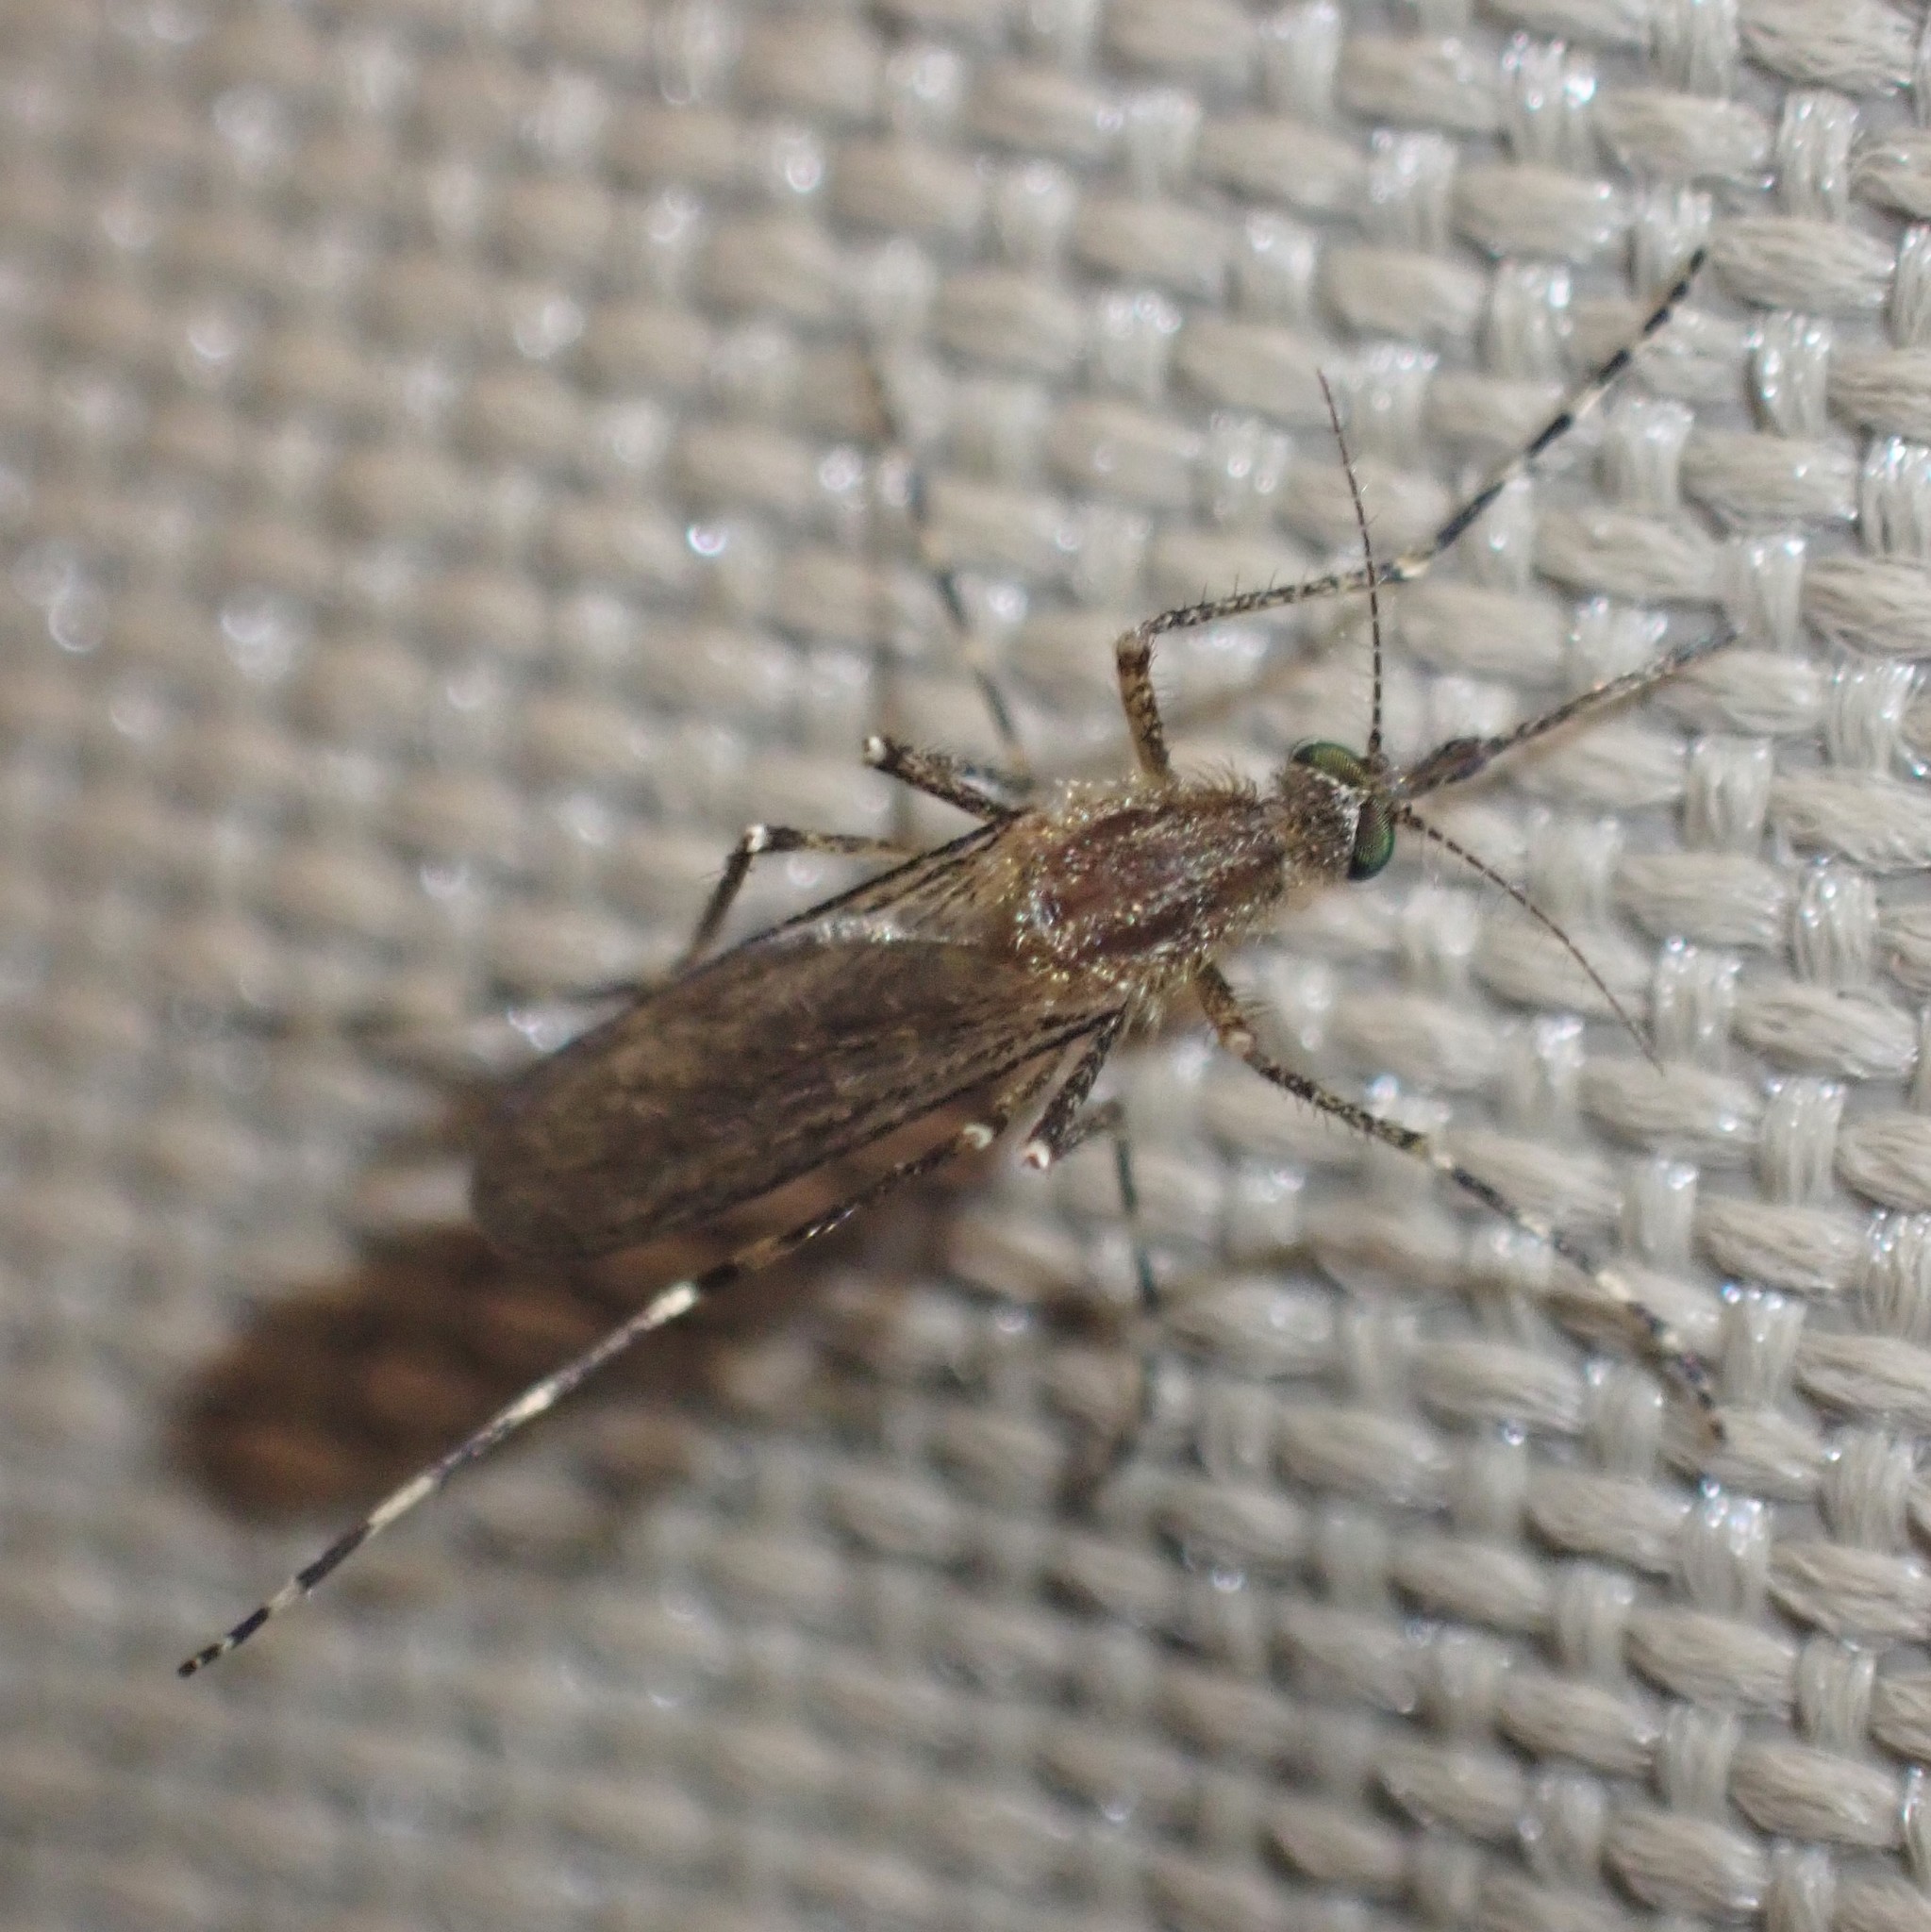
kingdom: Animalia
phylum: Arthropoda
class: Insecta
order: Diptera
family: Culicidae
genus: Coquillettidia
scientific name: Coquillettidia perturbans
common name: Cattail mosquito
